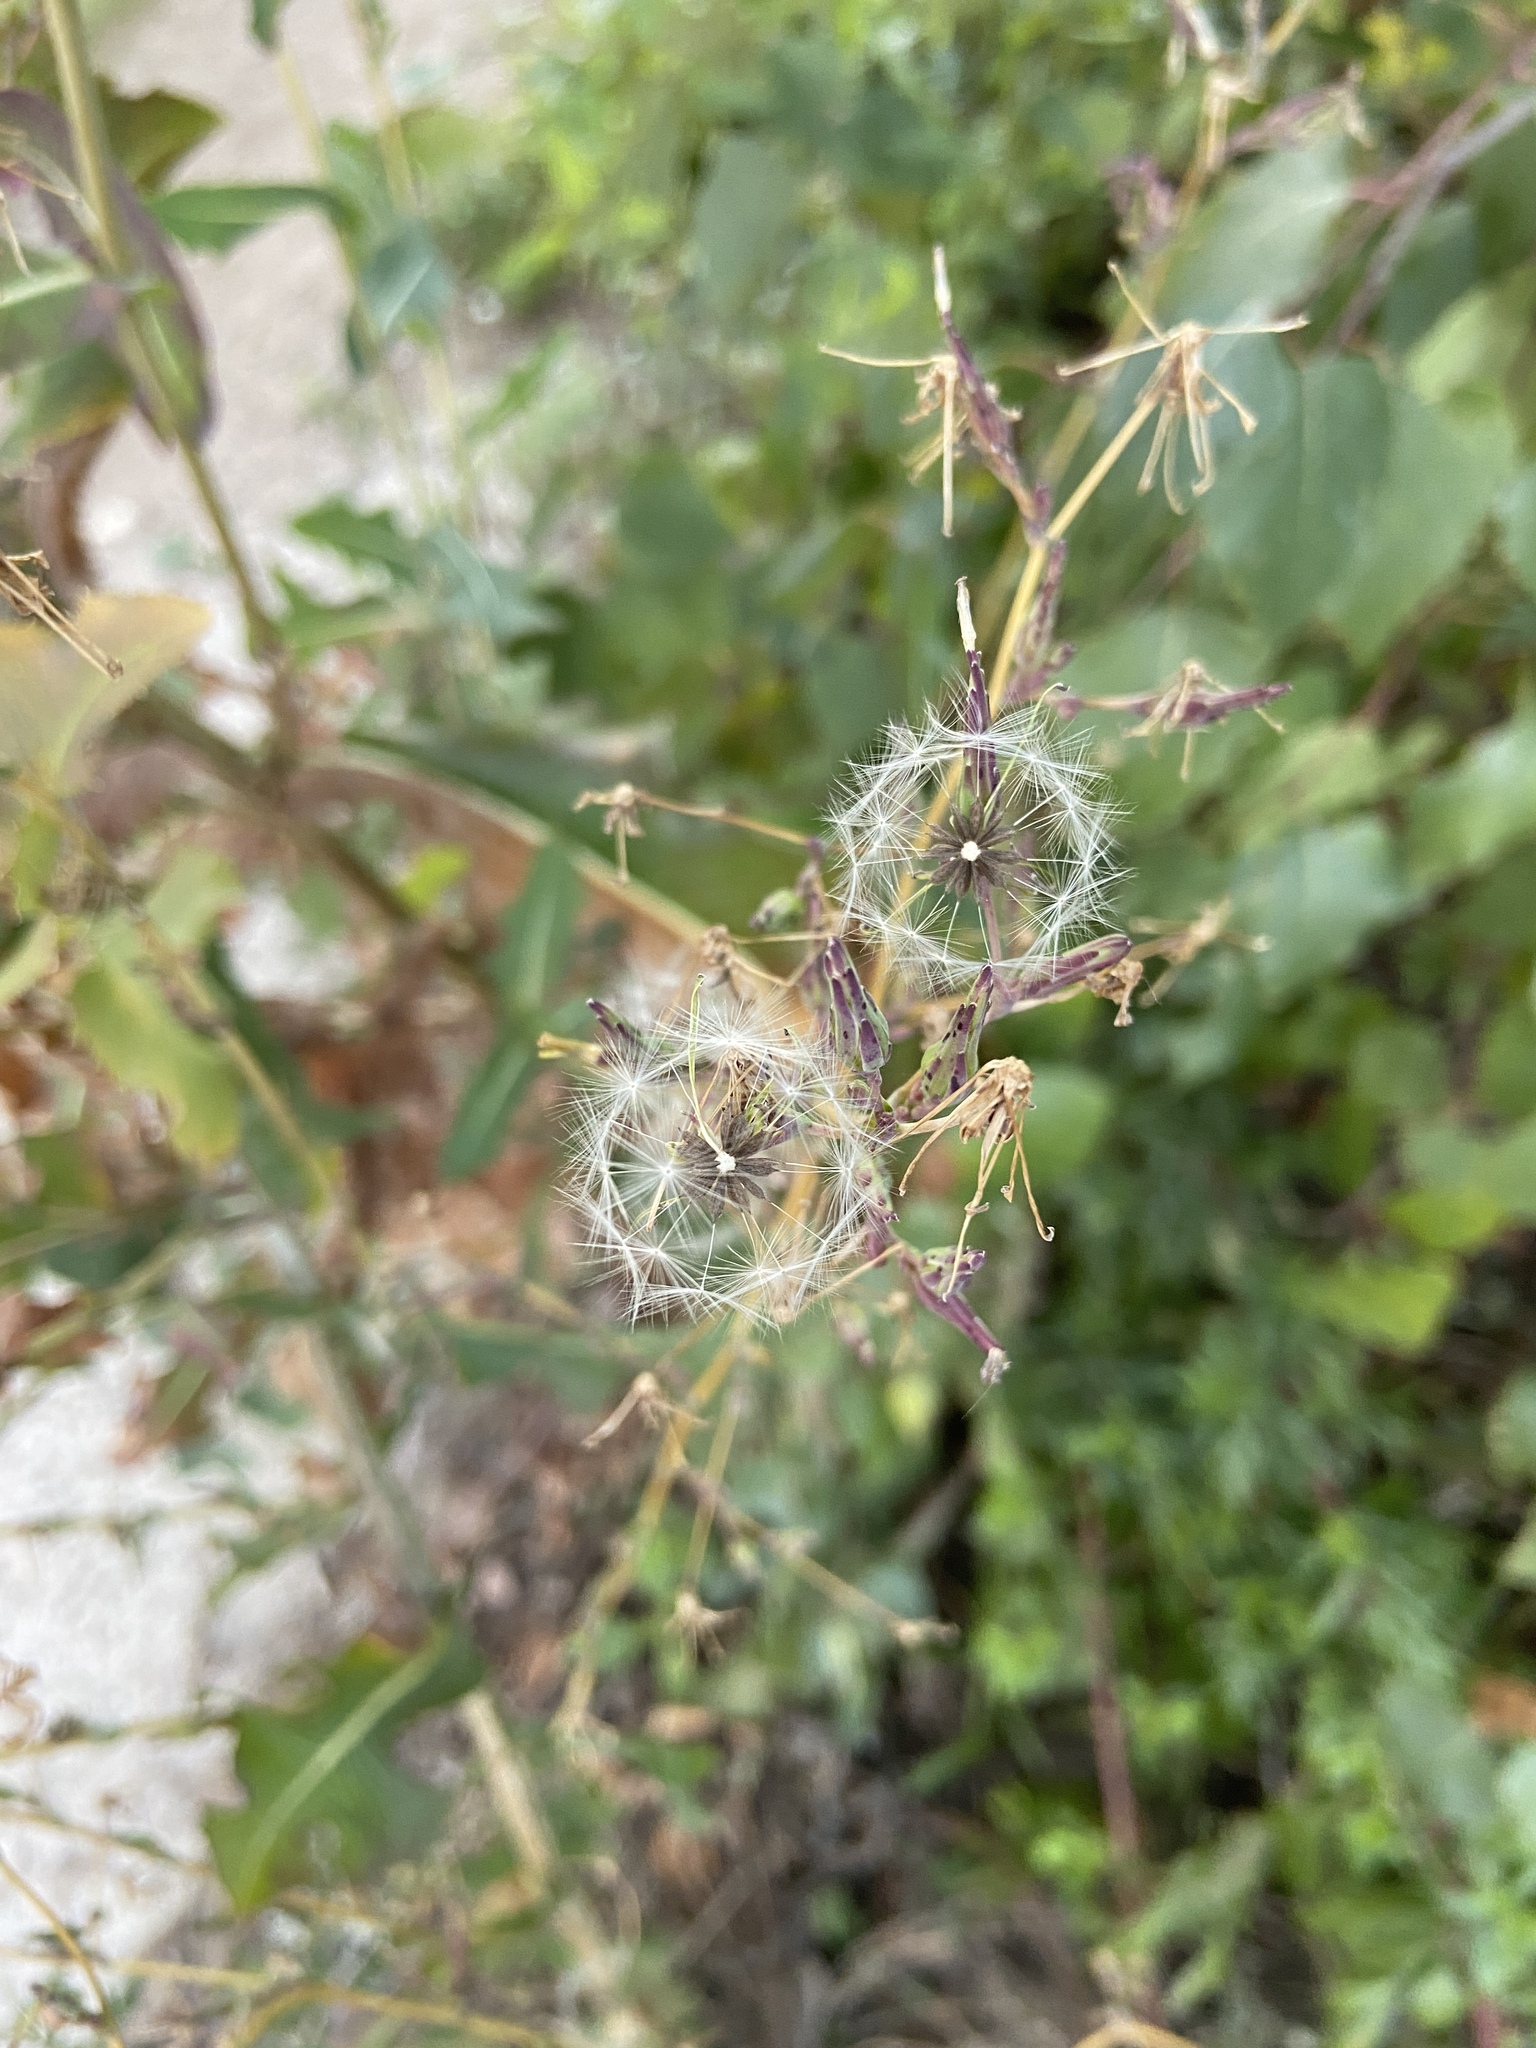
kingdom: Plantae
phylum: Tracheophyta
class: Magnoliopsida
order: Asterales
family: Asteraceae
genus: Lactuca
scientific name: Lactuca serriola
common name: Prickly lettuce
